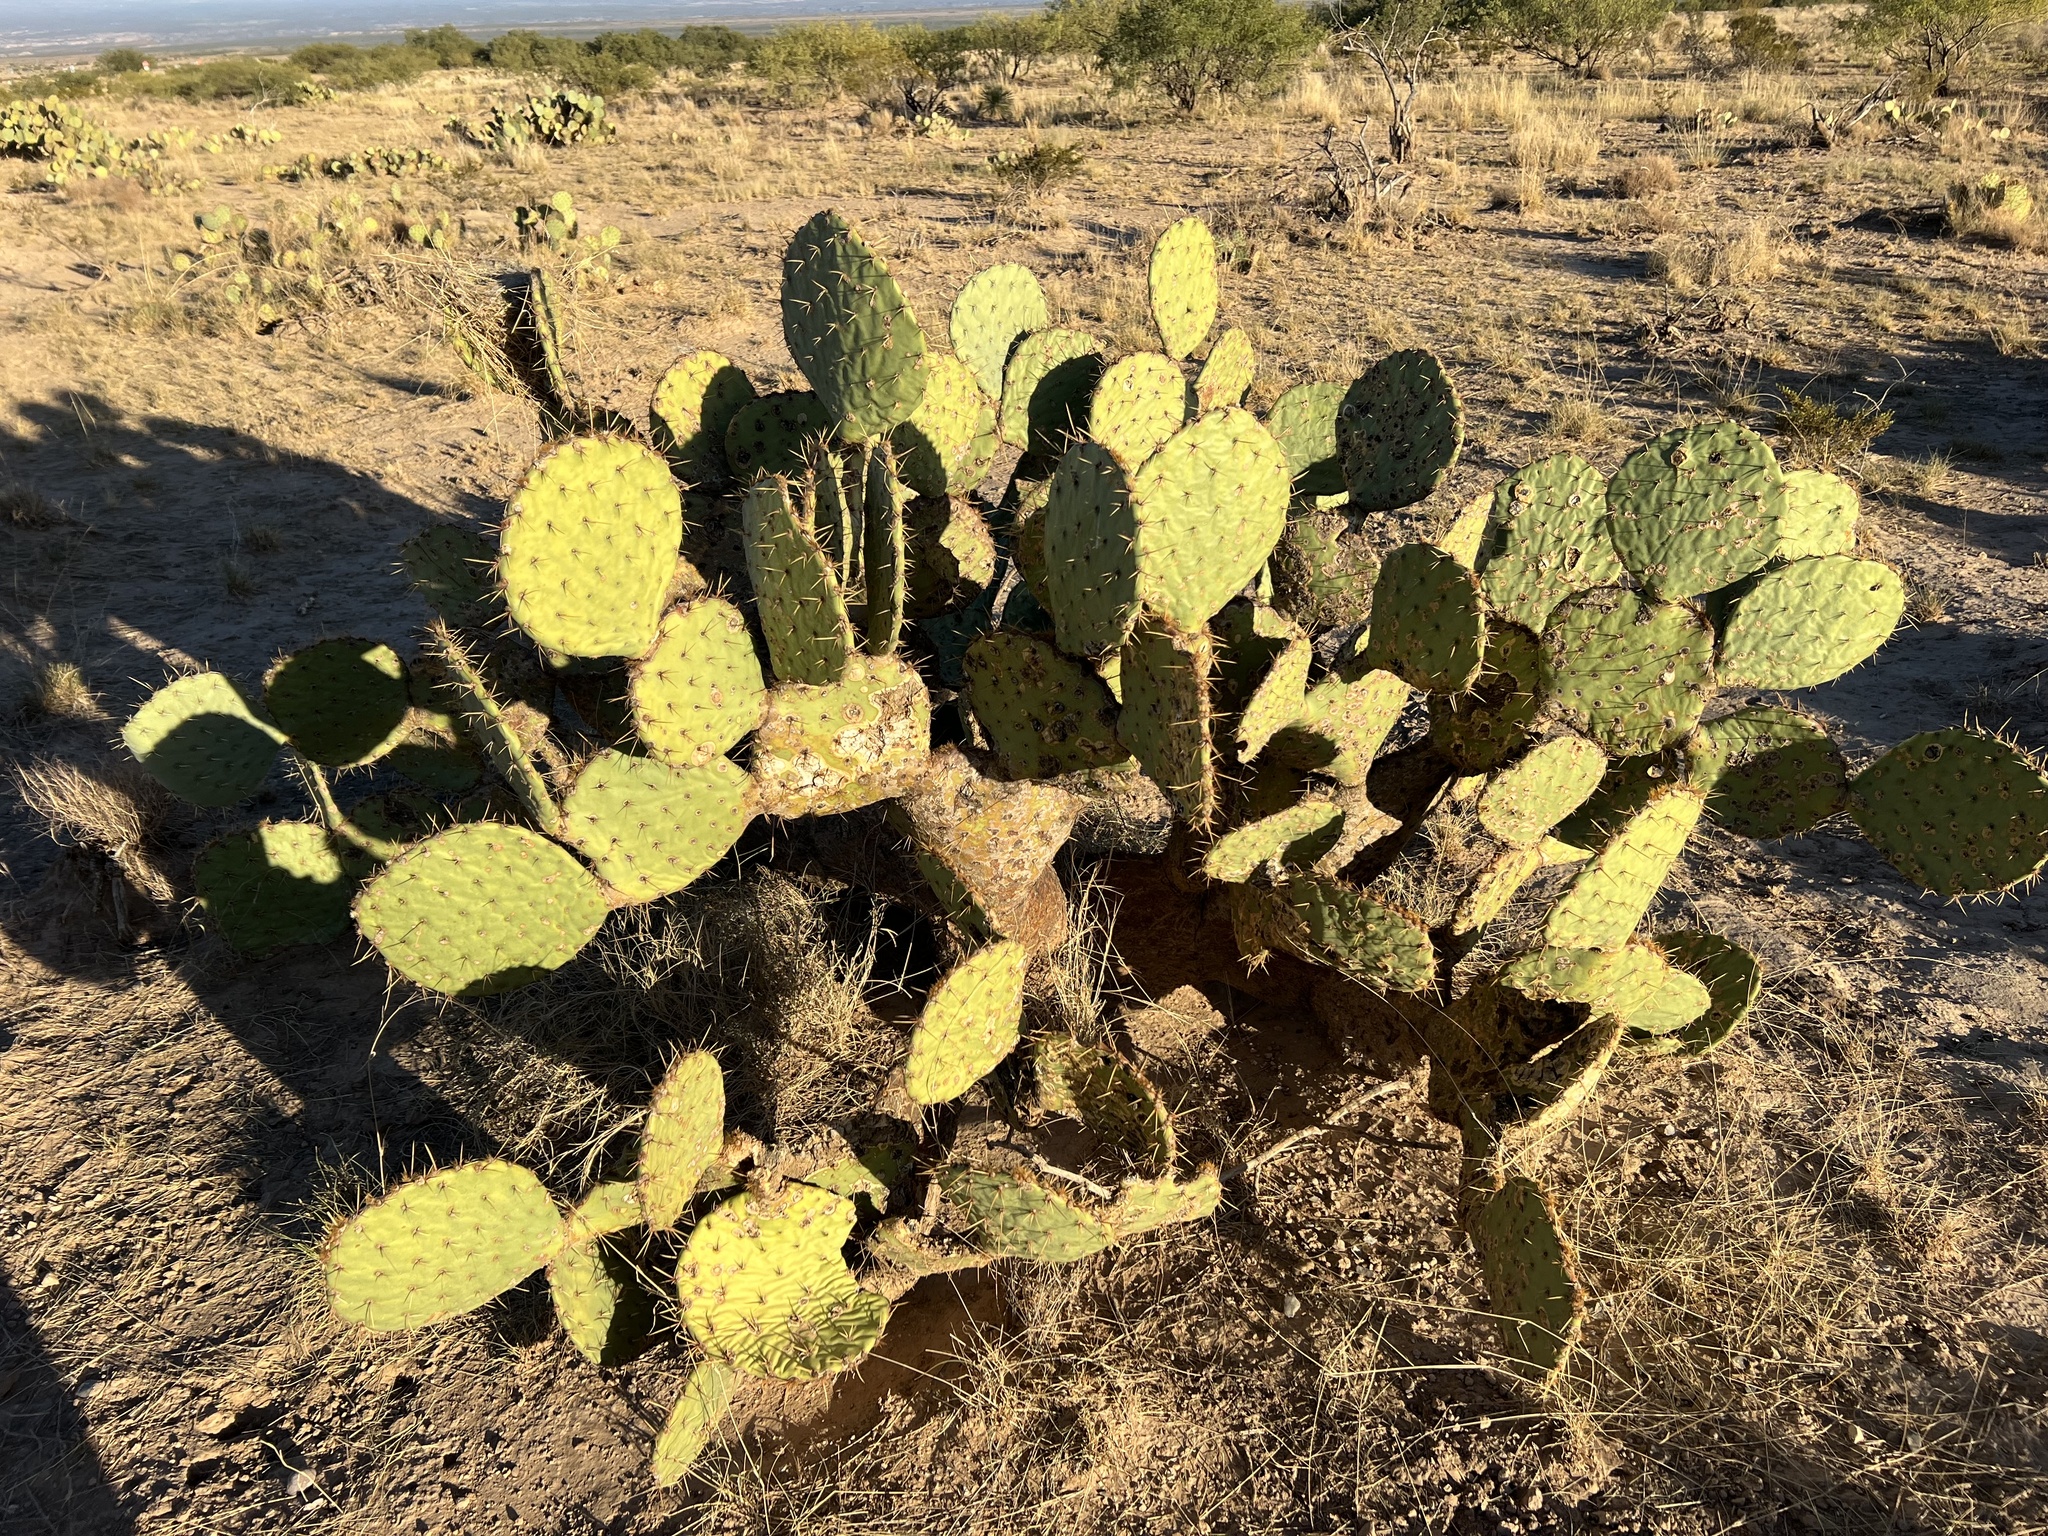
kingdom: Plantae
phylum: Tracheophyta
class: Magnoliopsida
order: Caryophyllales
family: Cactaceae
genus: Opuntia
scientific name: Opuntia engelmannii
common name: Cactus-apple
